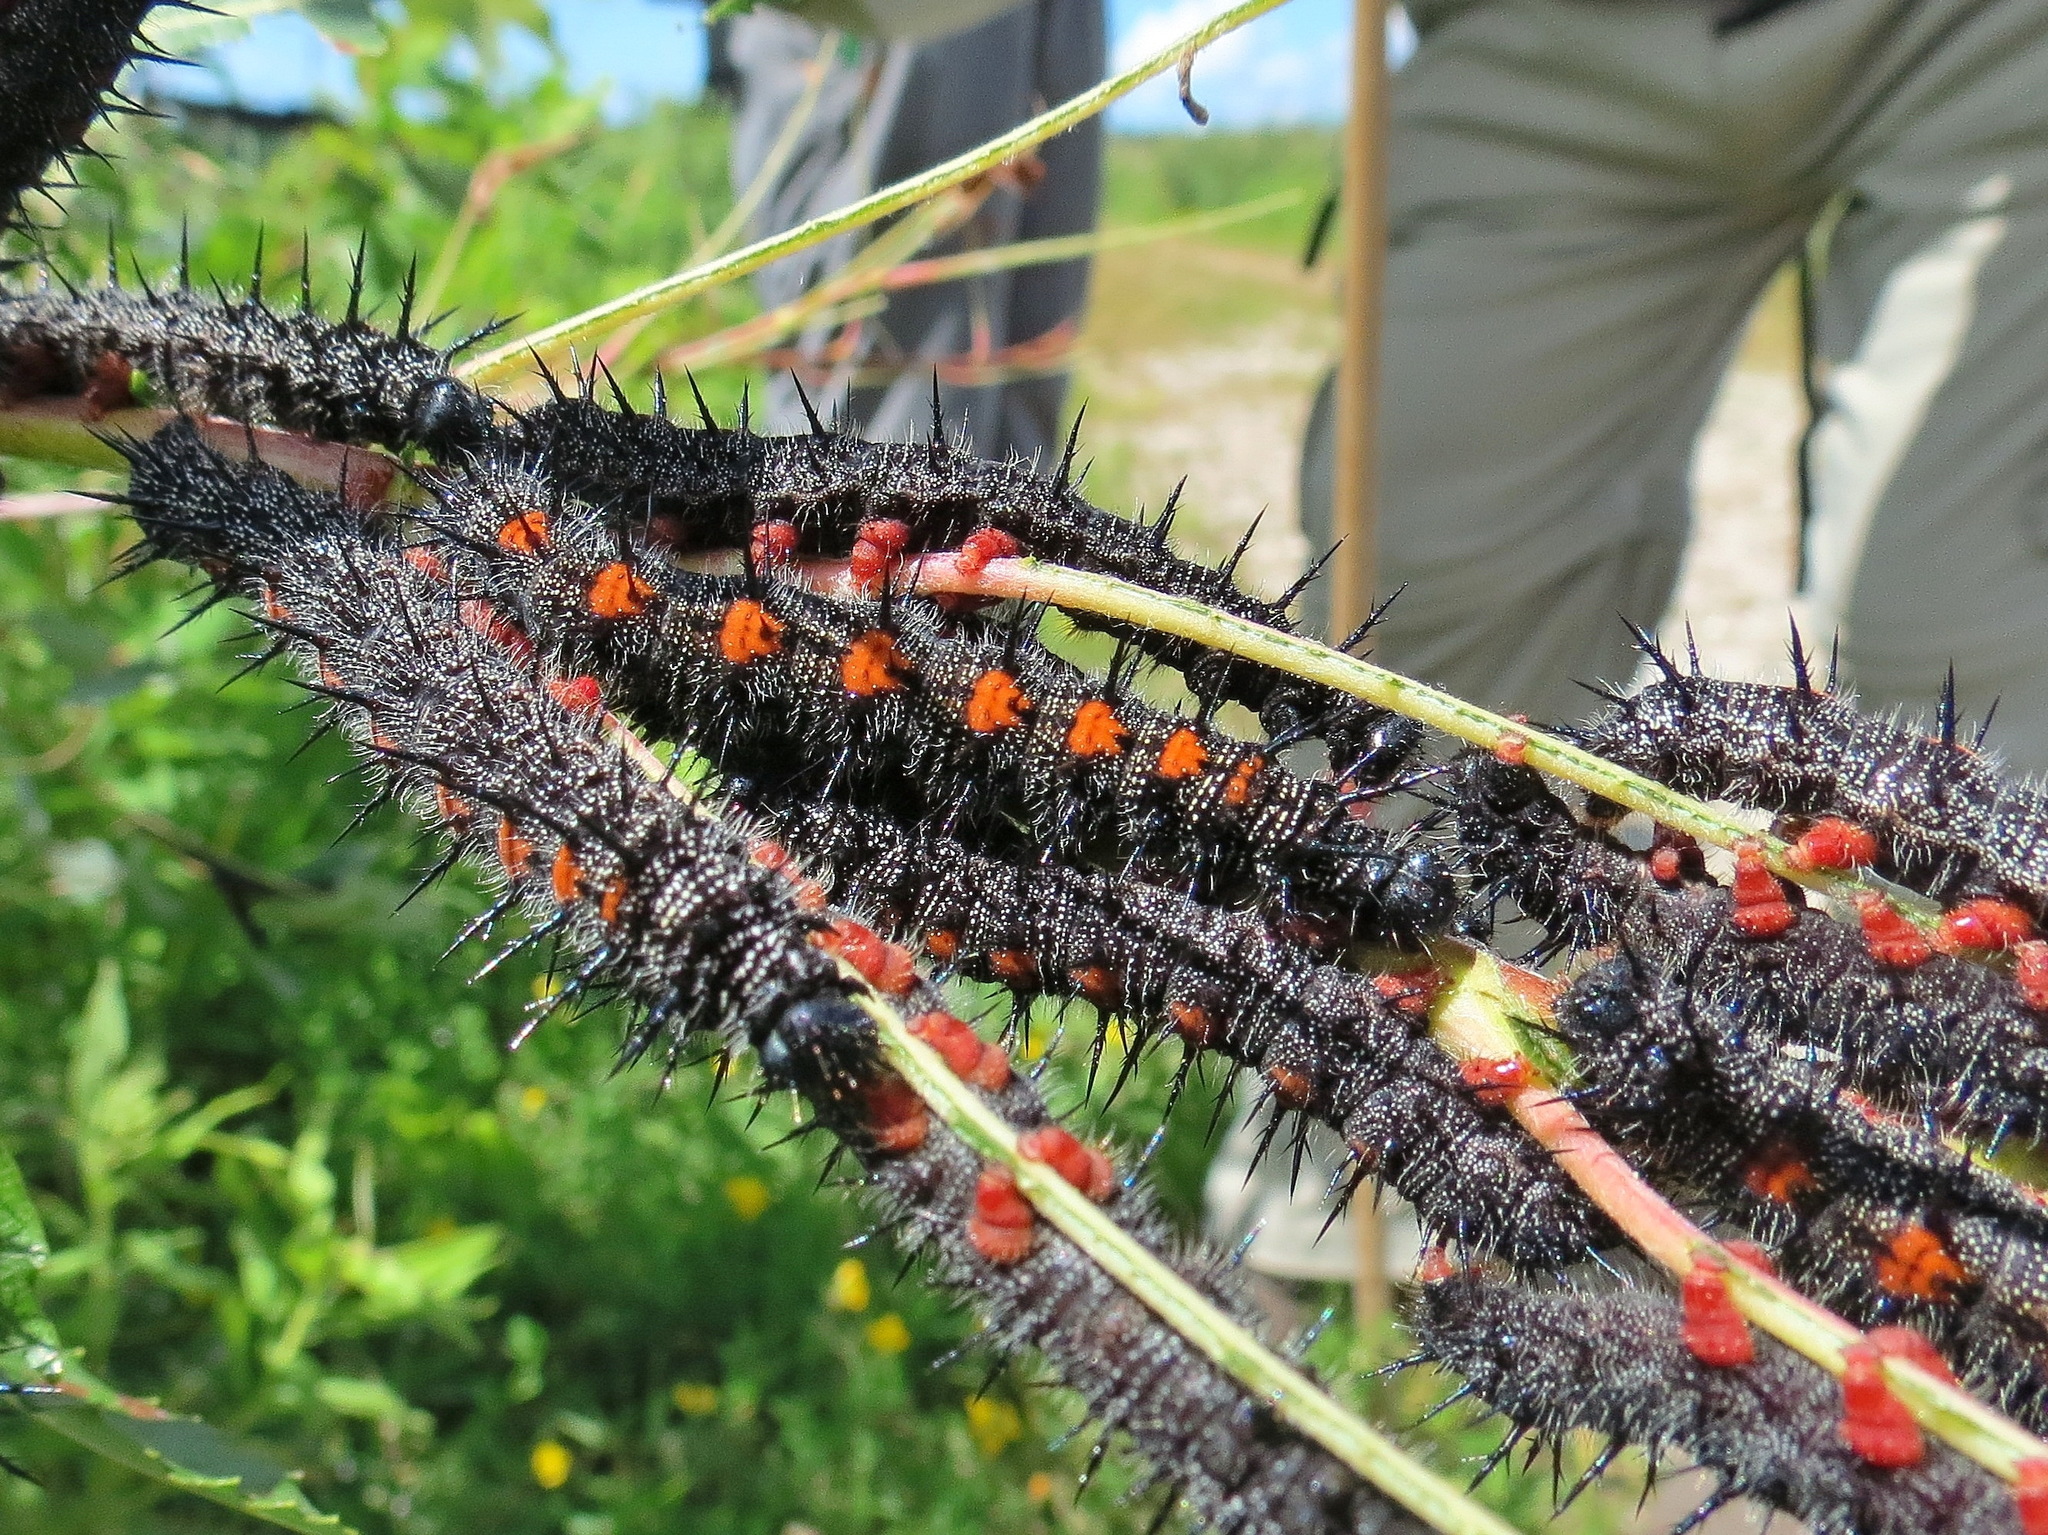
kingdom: Animalia
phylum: Arthropoda
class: Insecta
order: Lepidoptera
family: Nymphalidae
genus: Nymphalis
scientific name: Nymphalis antiopa
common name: Camberwell beauty
